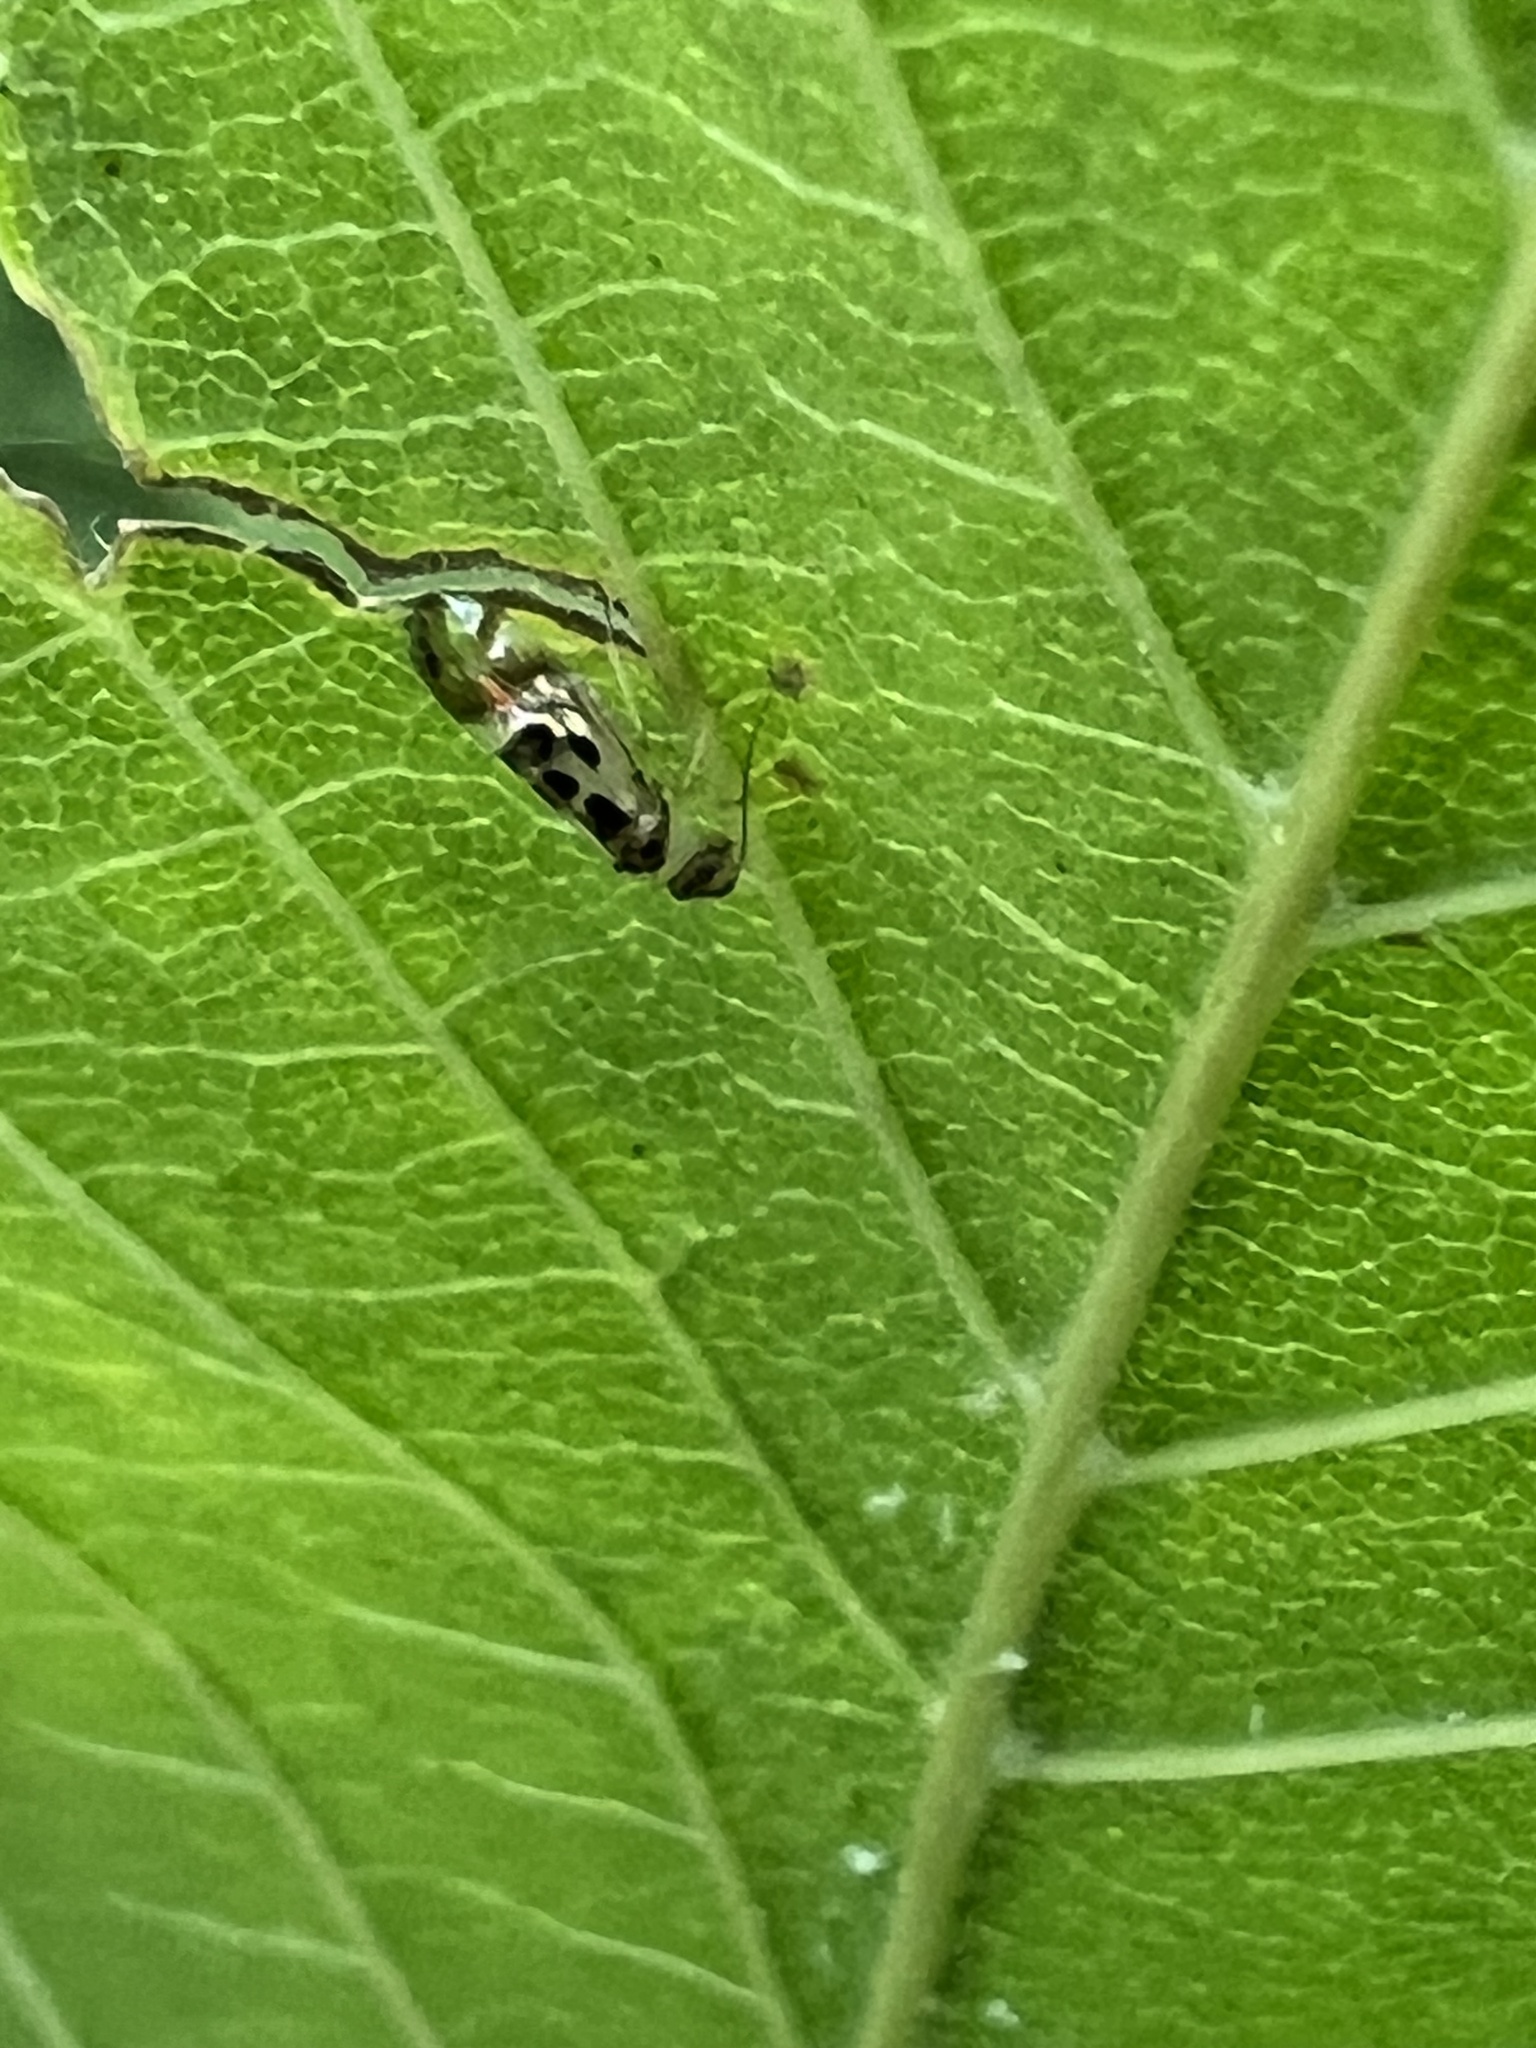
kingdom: Animalia
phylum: Arthropoda
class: Insecta
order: Psocodea
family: Stenopsocidae
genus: Graphopsocus
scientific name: Graphopsocus cruciatus
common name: Lizard bark louse
